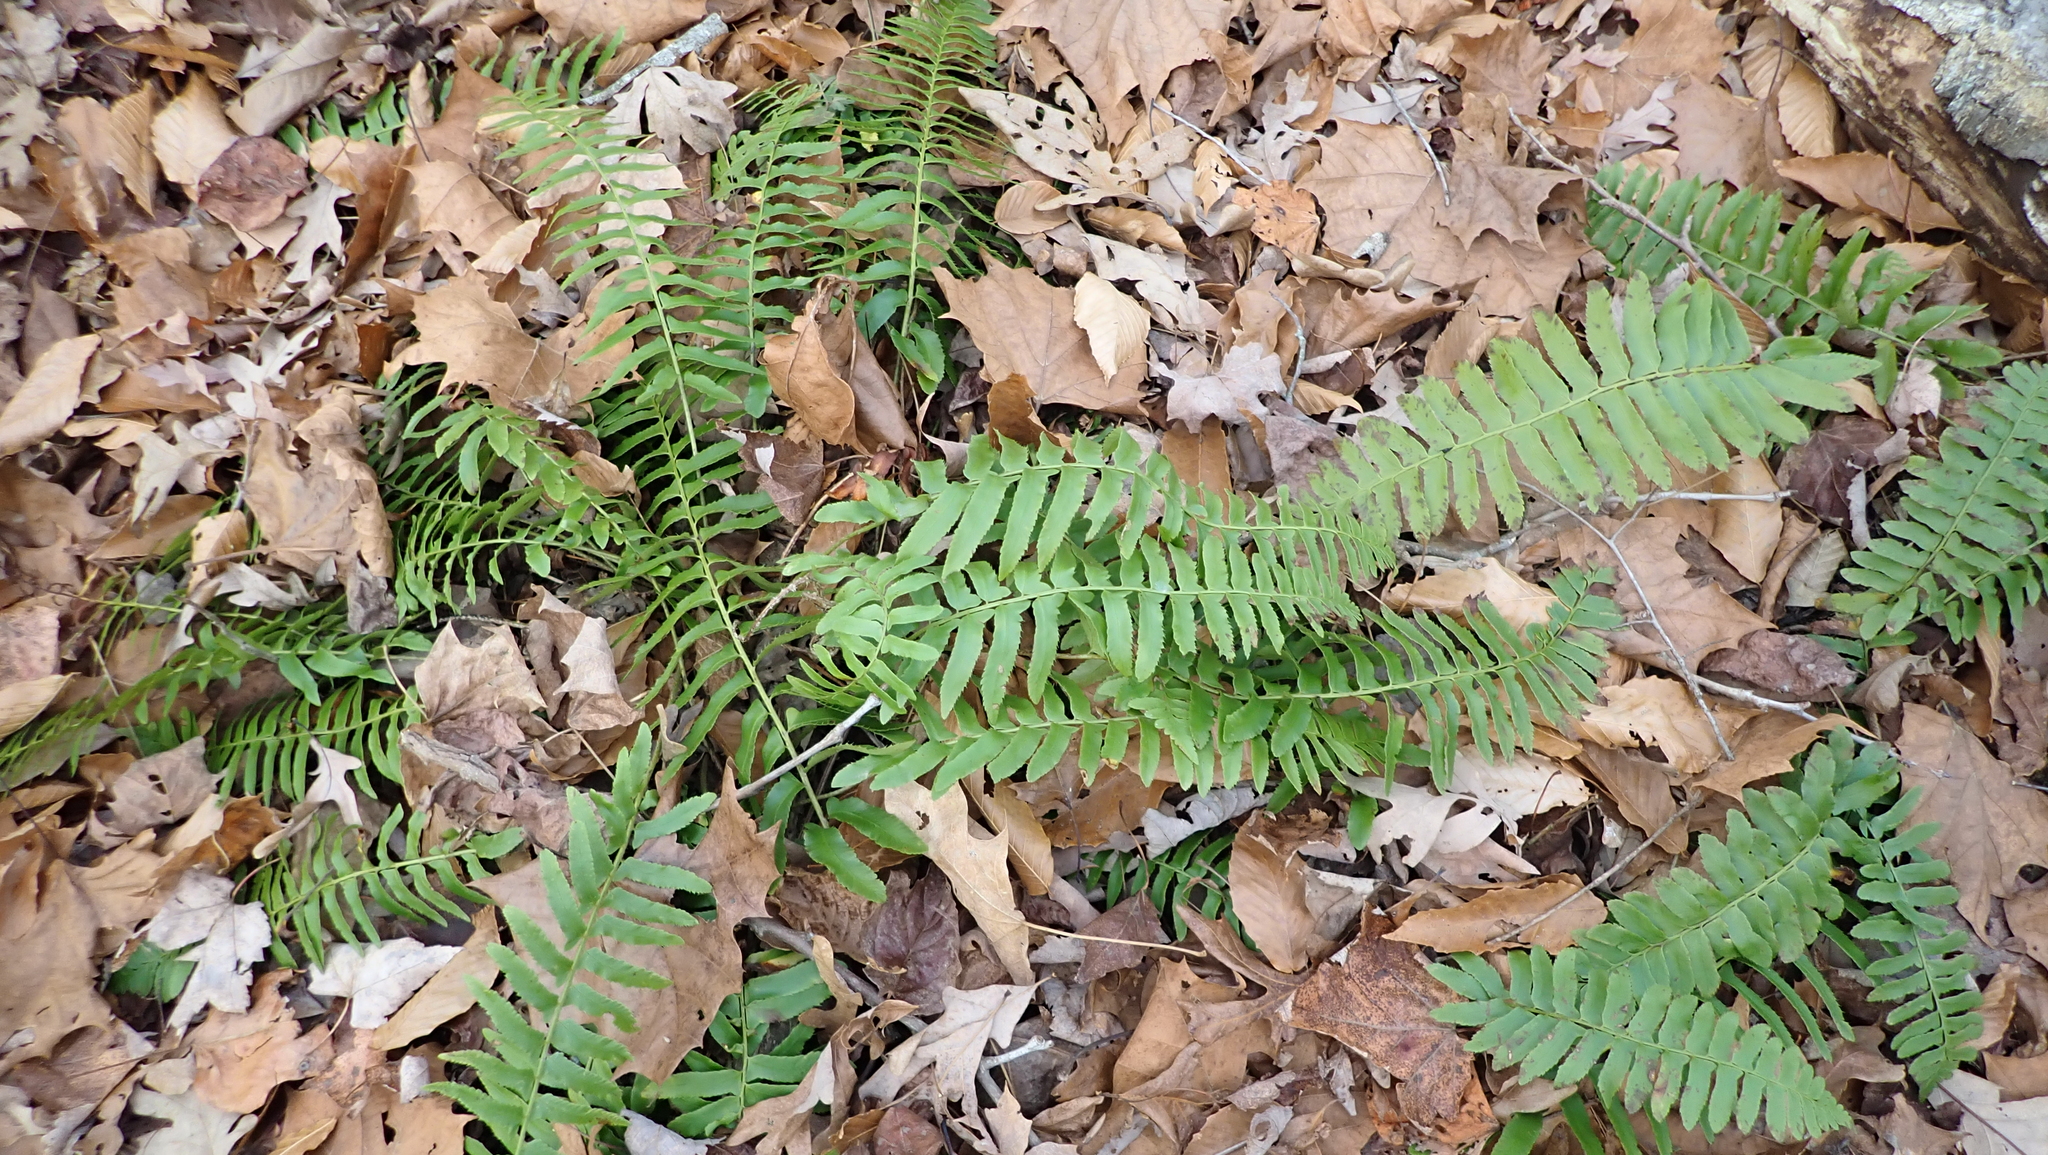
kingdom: Plantae
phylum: Tracheophyta
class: Polypodiopsida
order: Polypodiales
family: Dryopteridaceae
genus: Polystichum
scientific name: Polystichum acrostichoides
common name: Christmas fern
